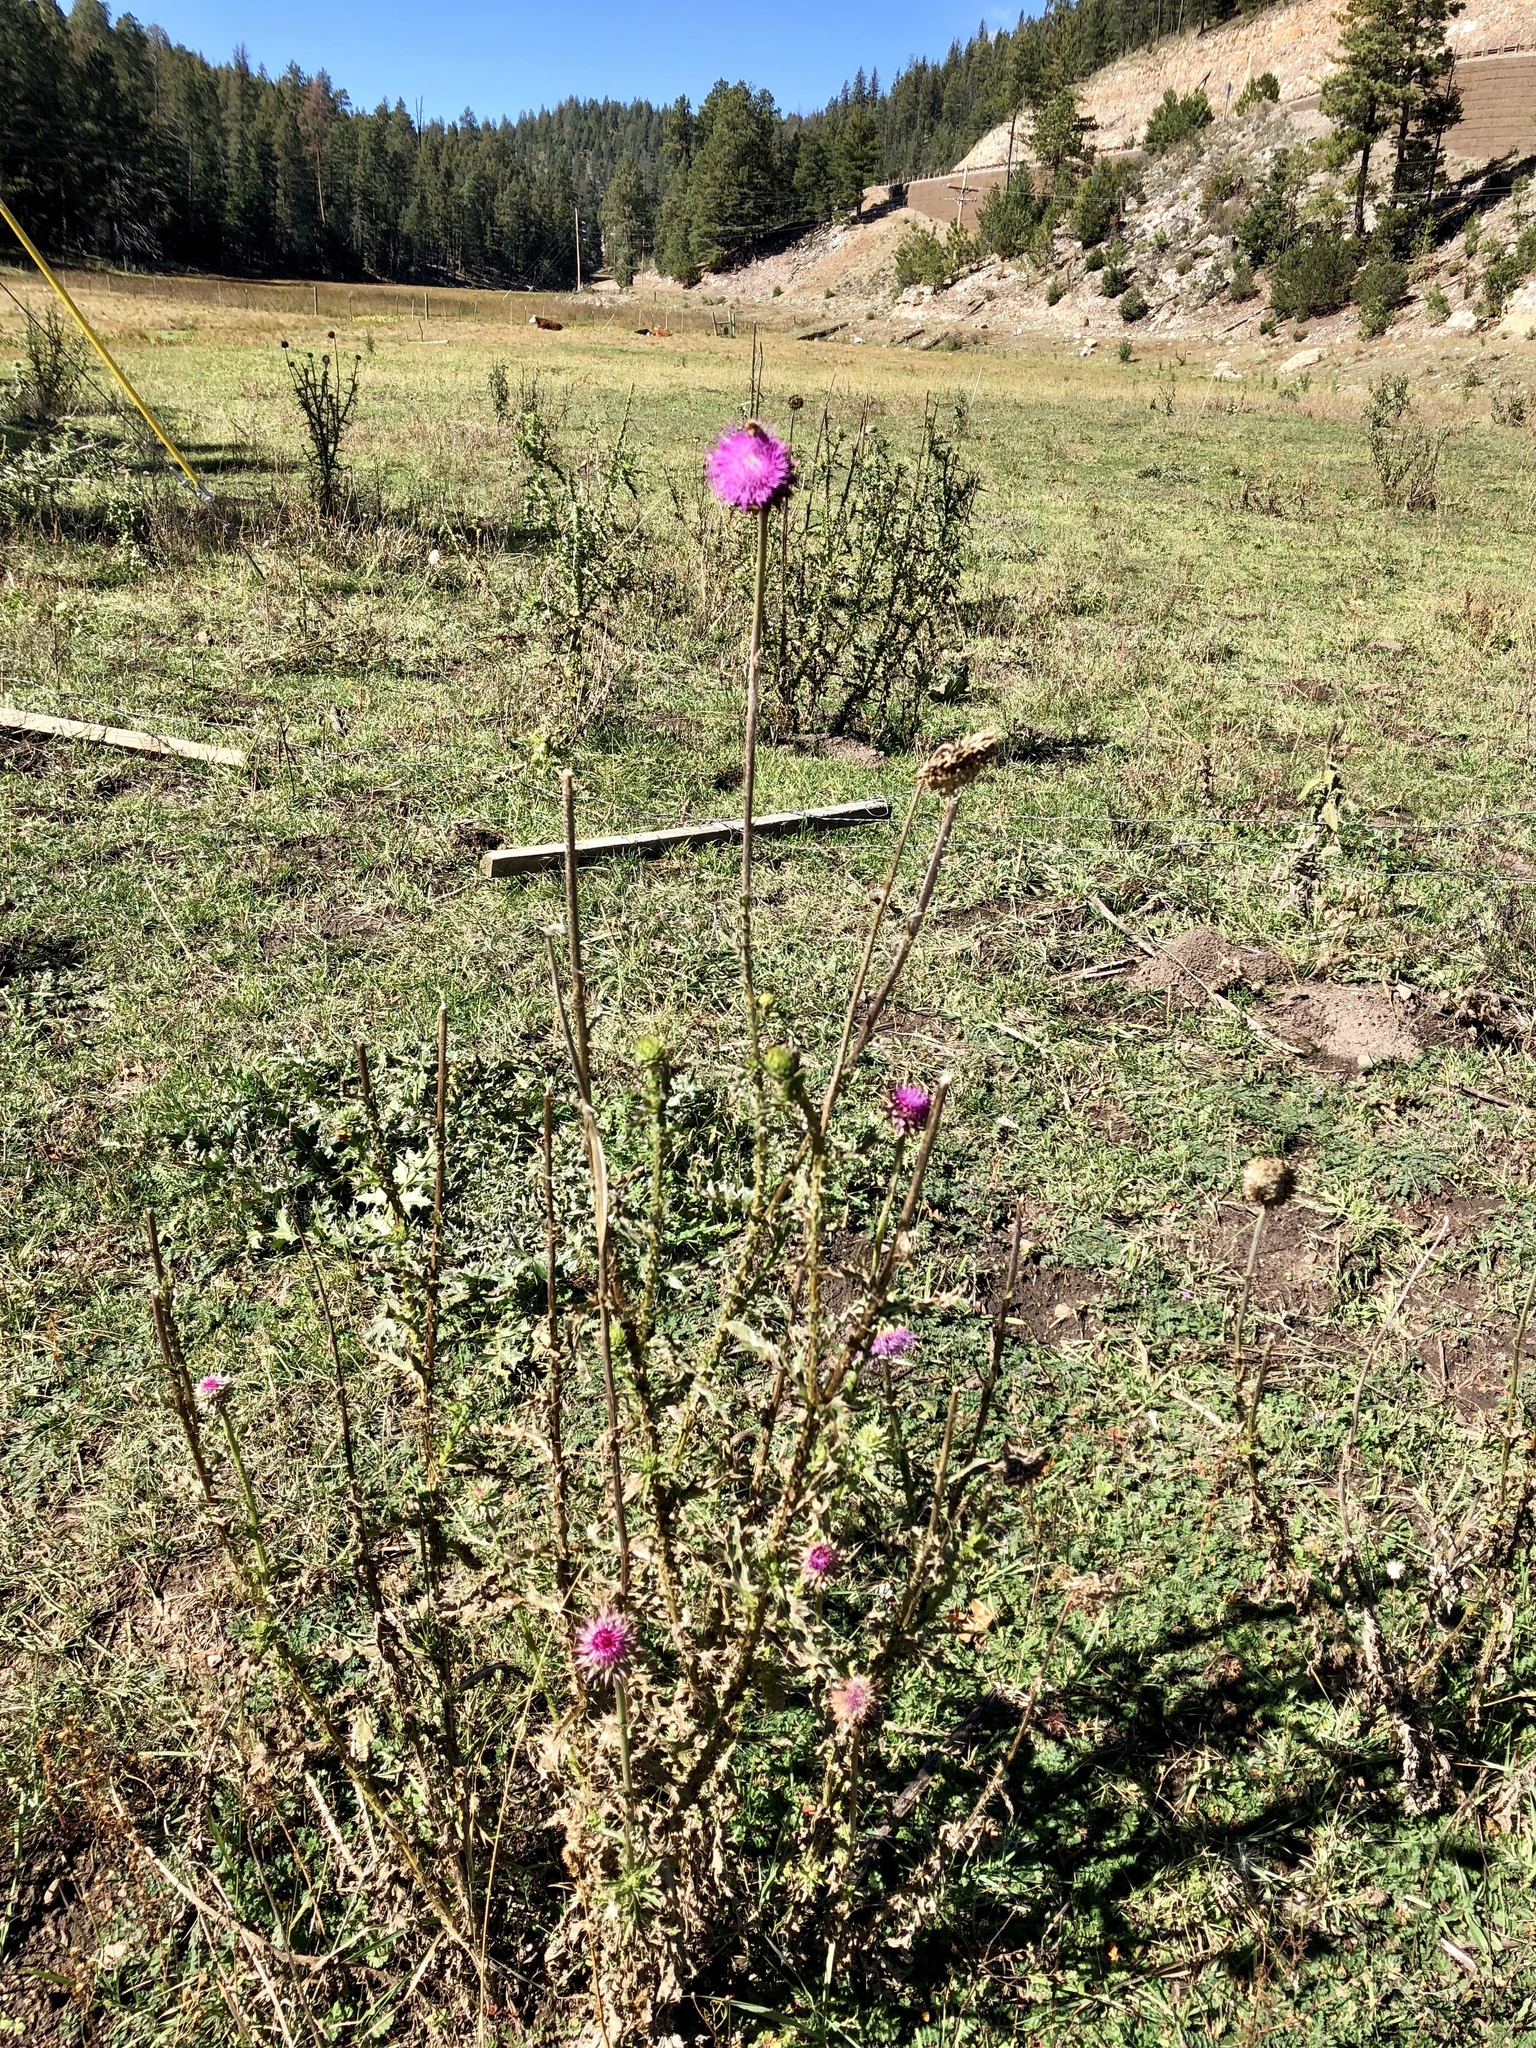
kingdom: Plantae
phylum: Tracheophyta
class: Magnoliopsida
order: Asterales
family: Asteraceae
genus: Carduus
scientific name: Carduus nutans
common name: Musk thistle
